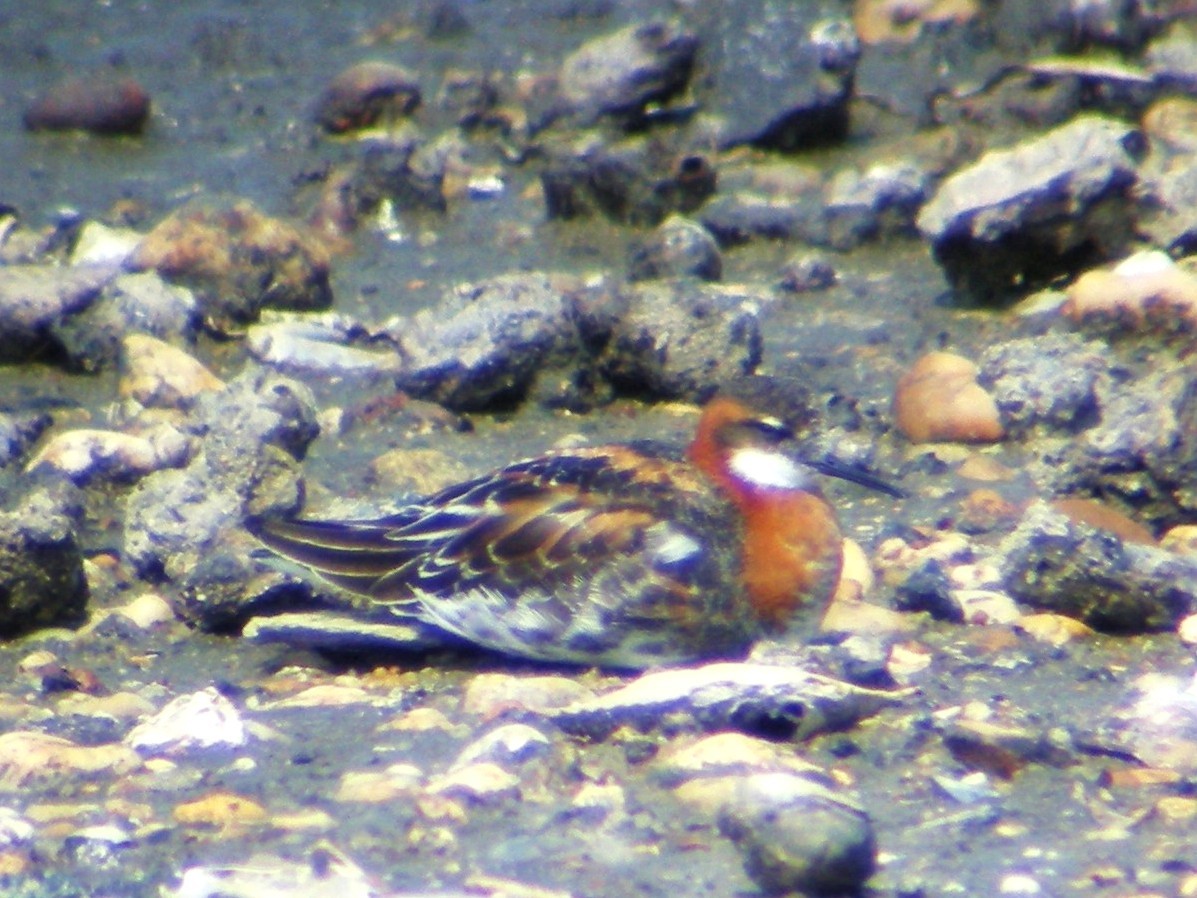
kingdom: Animalia
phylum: Chordata
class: Aves
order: Charadriiformes
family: Scolopacidae
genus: Phalaropus
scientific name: Phalaropus lobatus
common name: Red-necked phalarope
